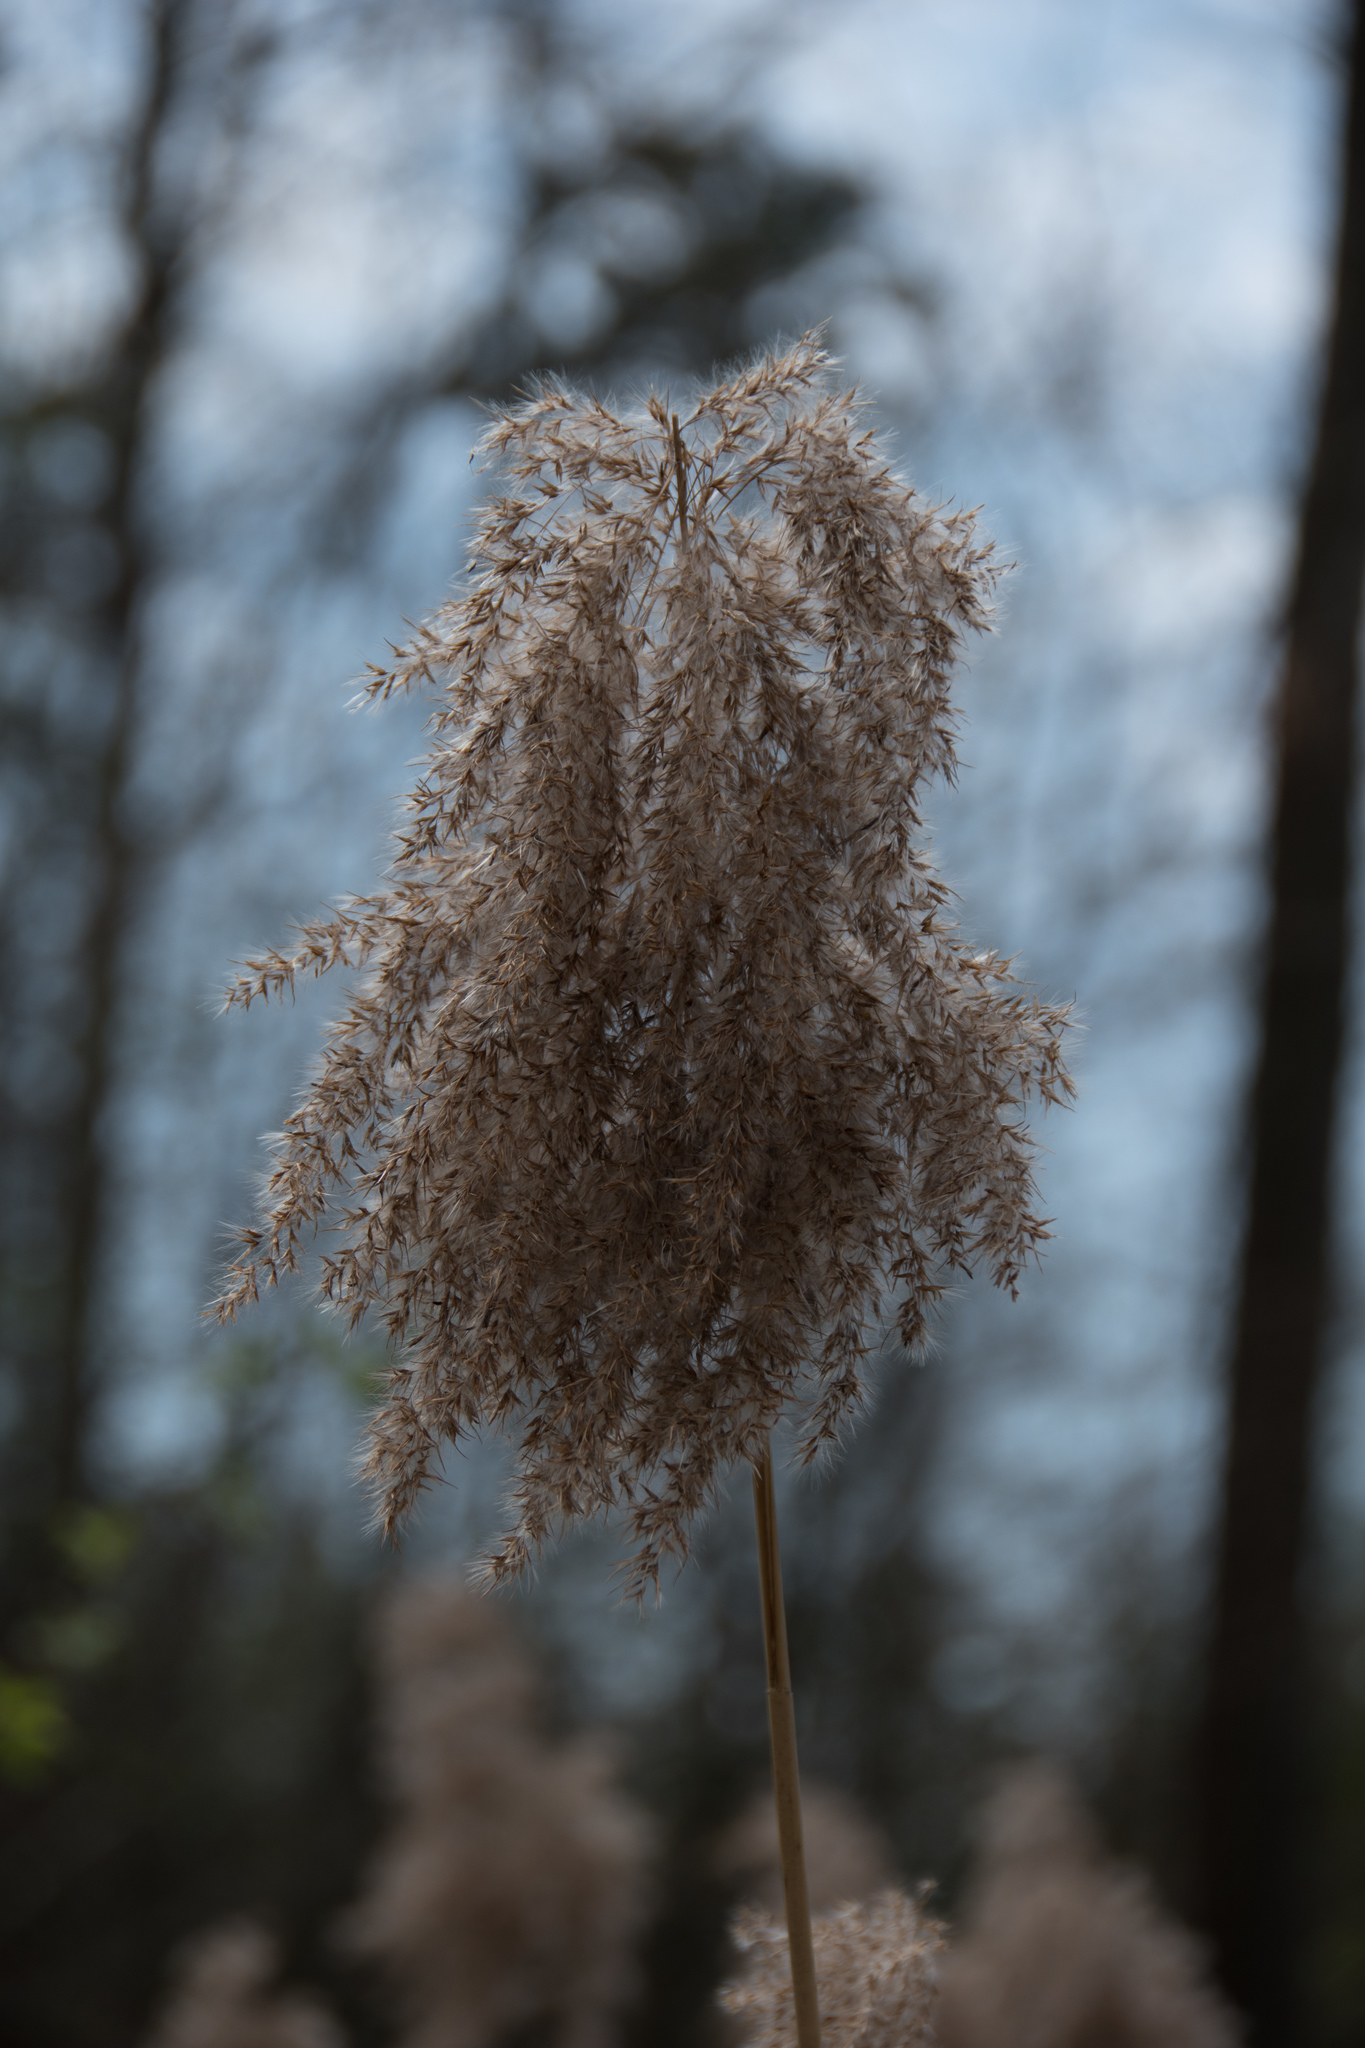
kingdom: Plantae
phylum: Tracheophyta
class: Liliopsida
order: Poales
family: Poaceae
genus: Phragmites
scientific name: Phragmites australis
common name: Common reed
